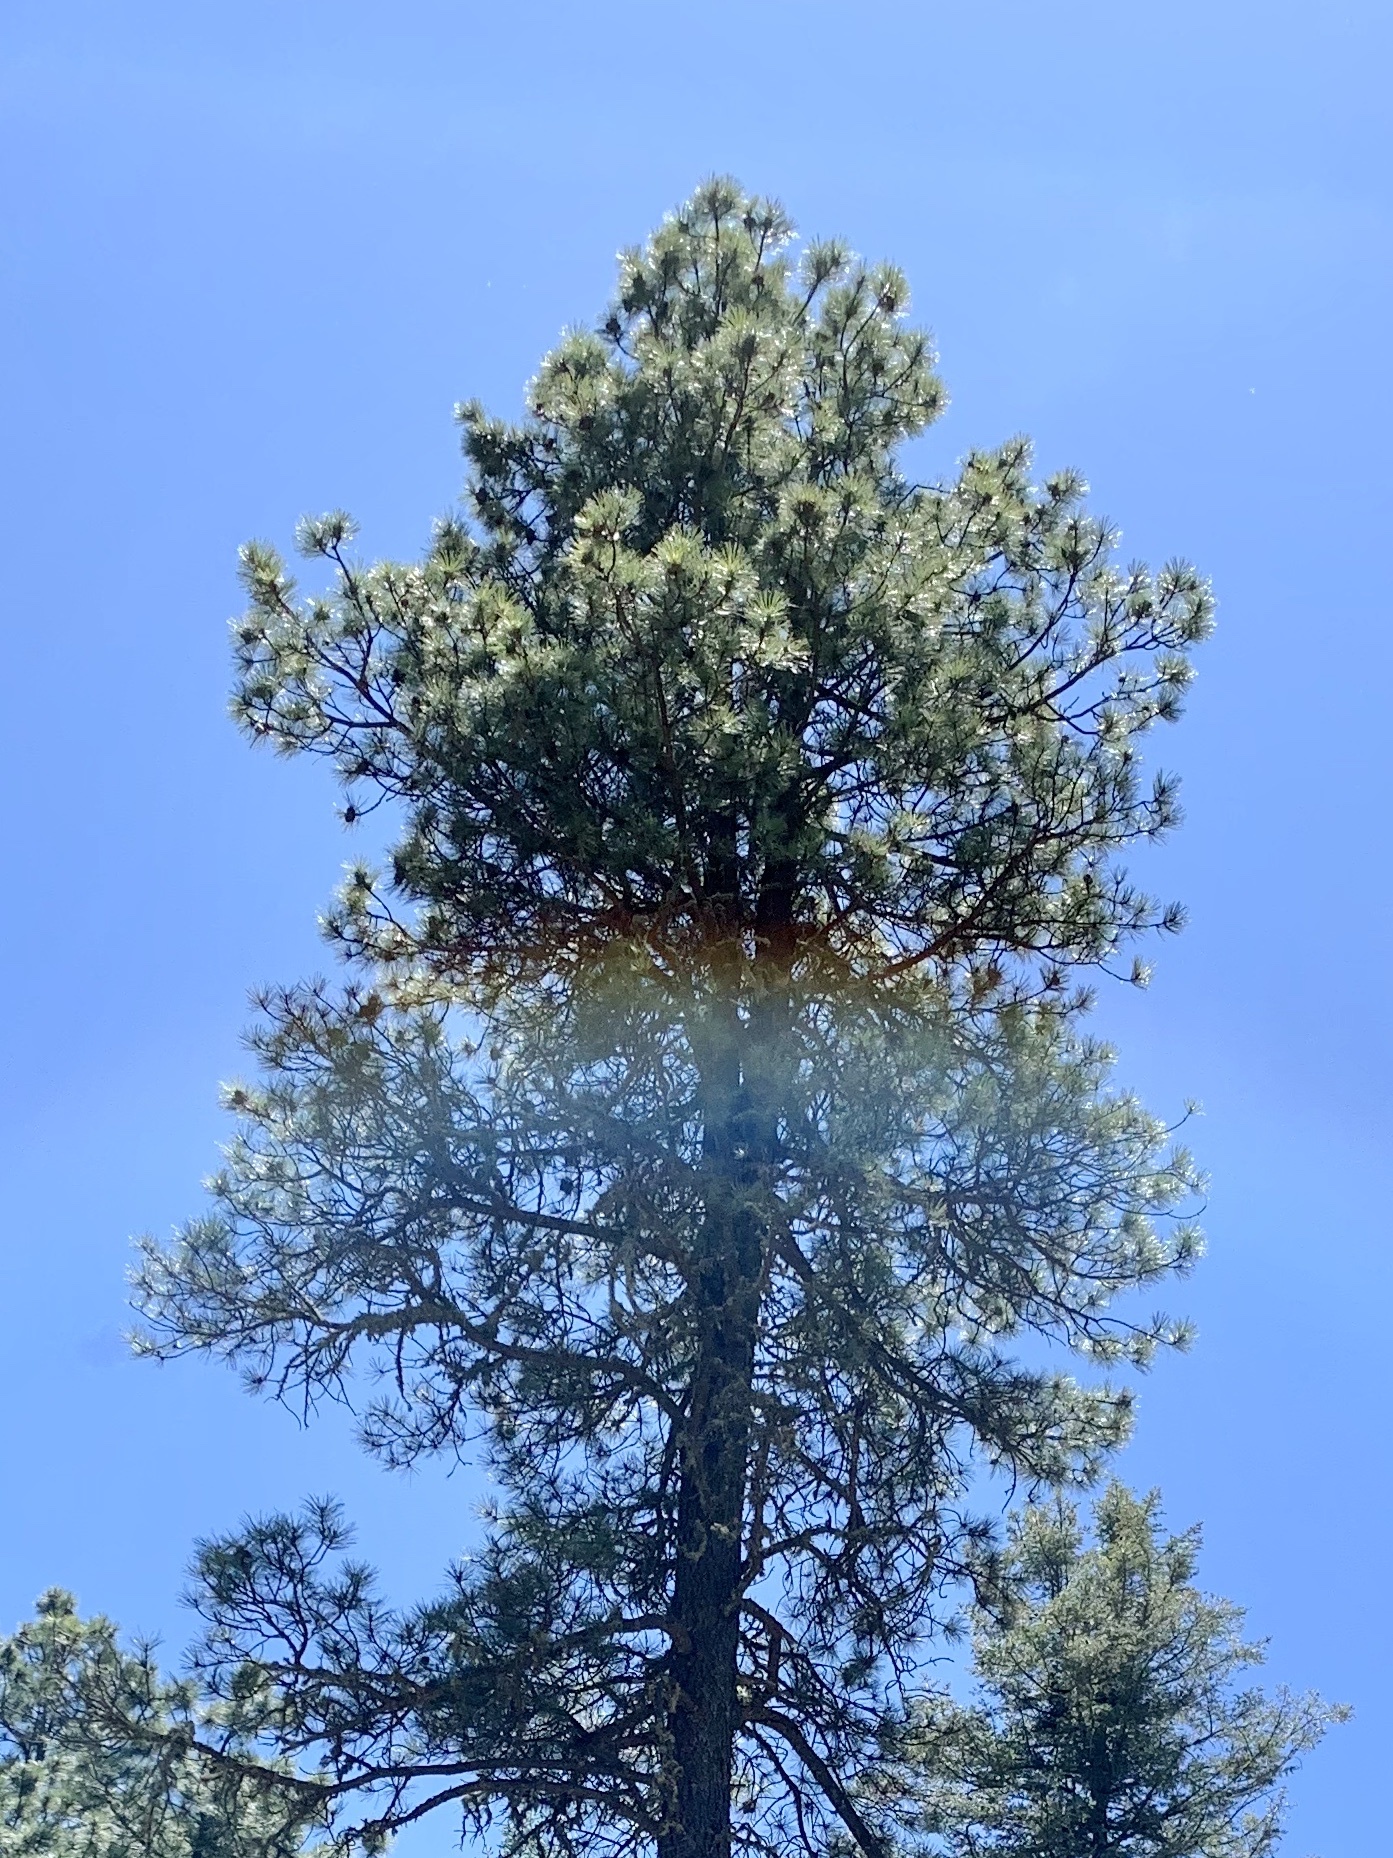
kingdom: Plantae
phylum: Tracheophyta
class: Pinopsida
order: Pinales
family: Pinaceae
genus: Pinus
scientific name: Pinus ponderosa
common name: Western yellow-pine
